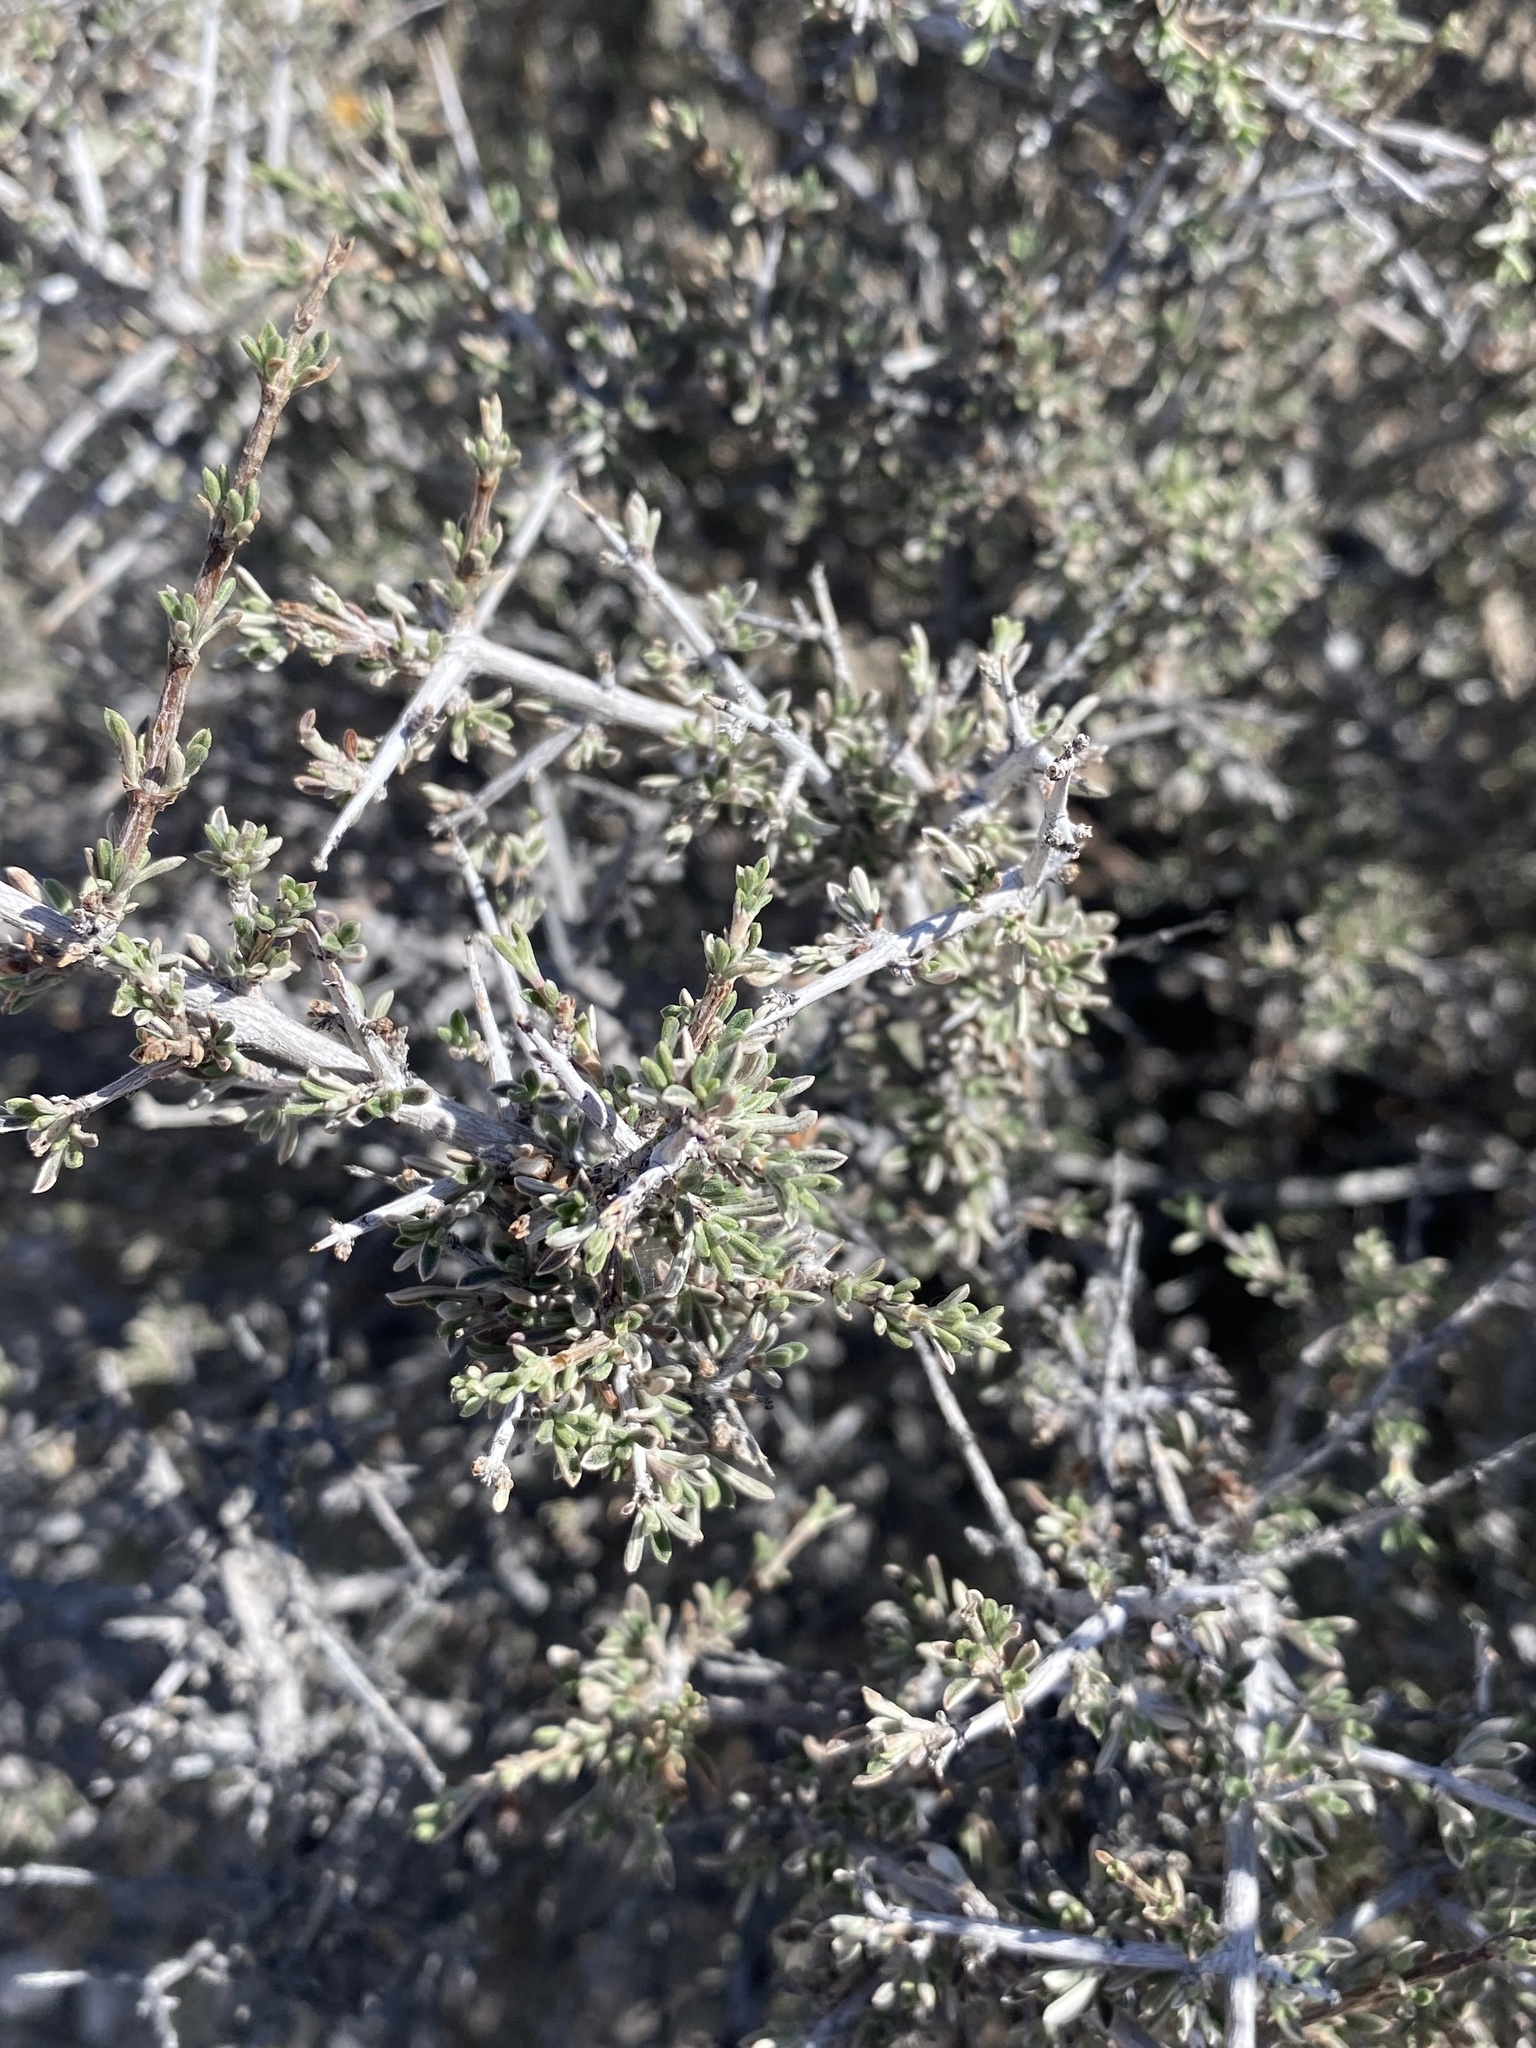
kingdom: Plantae
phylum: Tracheophyta
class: Magnoliopsida
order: Rosales
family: Rosaceae
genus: Coleogyne
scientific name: Coleogyne ramosissima
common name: Blackbrush
